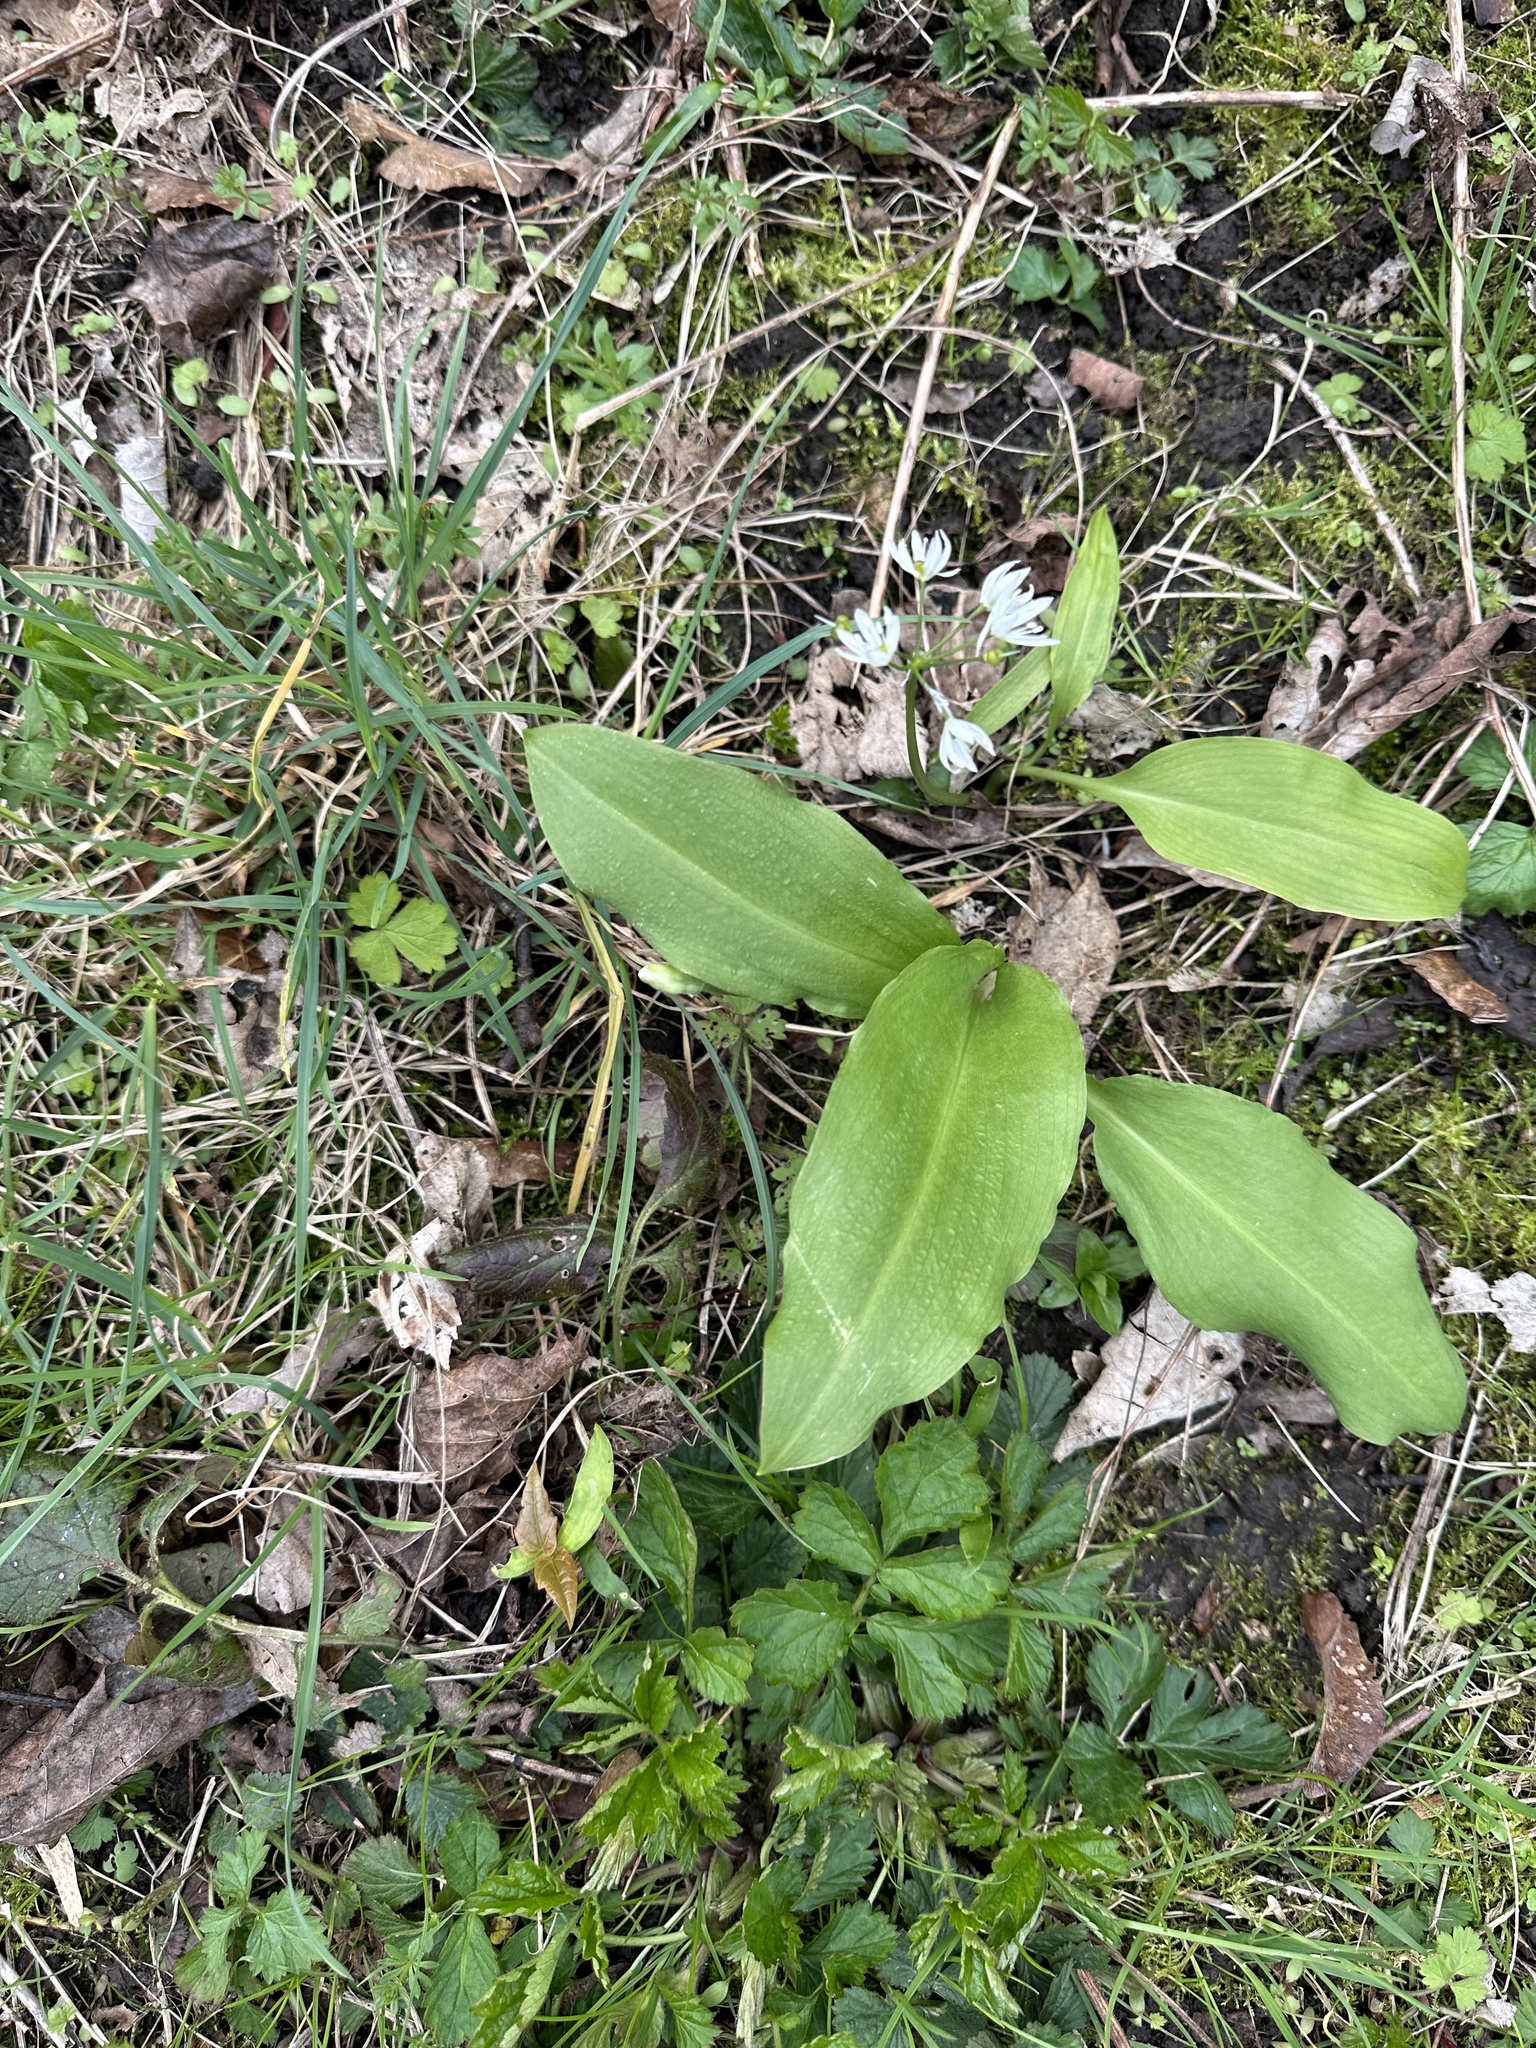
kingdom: Plantae
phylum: Tracheophyta
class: Liliopsida
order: Asparagales
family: Amaryllidaceae
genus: Allium
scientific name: Allium ursinum
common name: Ramsons
